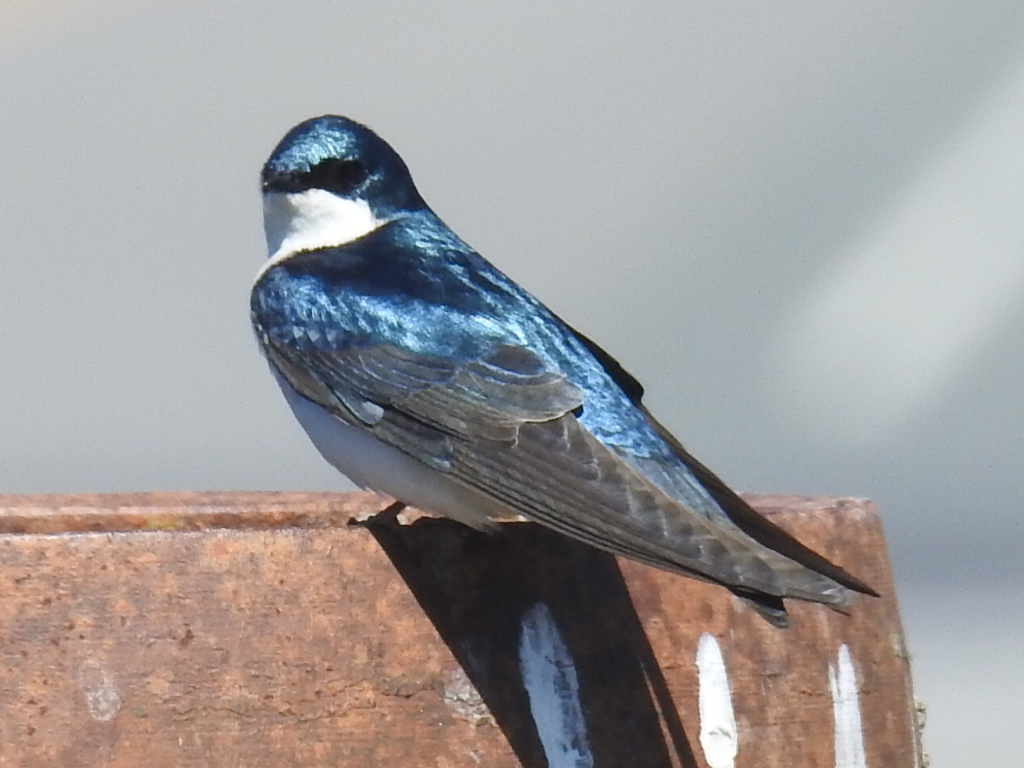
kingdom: Animalia
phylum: Chordata
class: Aves
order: Passeriformes
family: Hirundinidae
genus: Tachycineta
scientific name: Tachycineta bicolor
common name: Tree swallow
